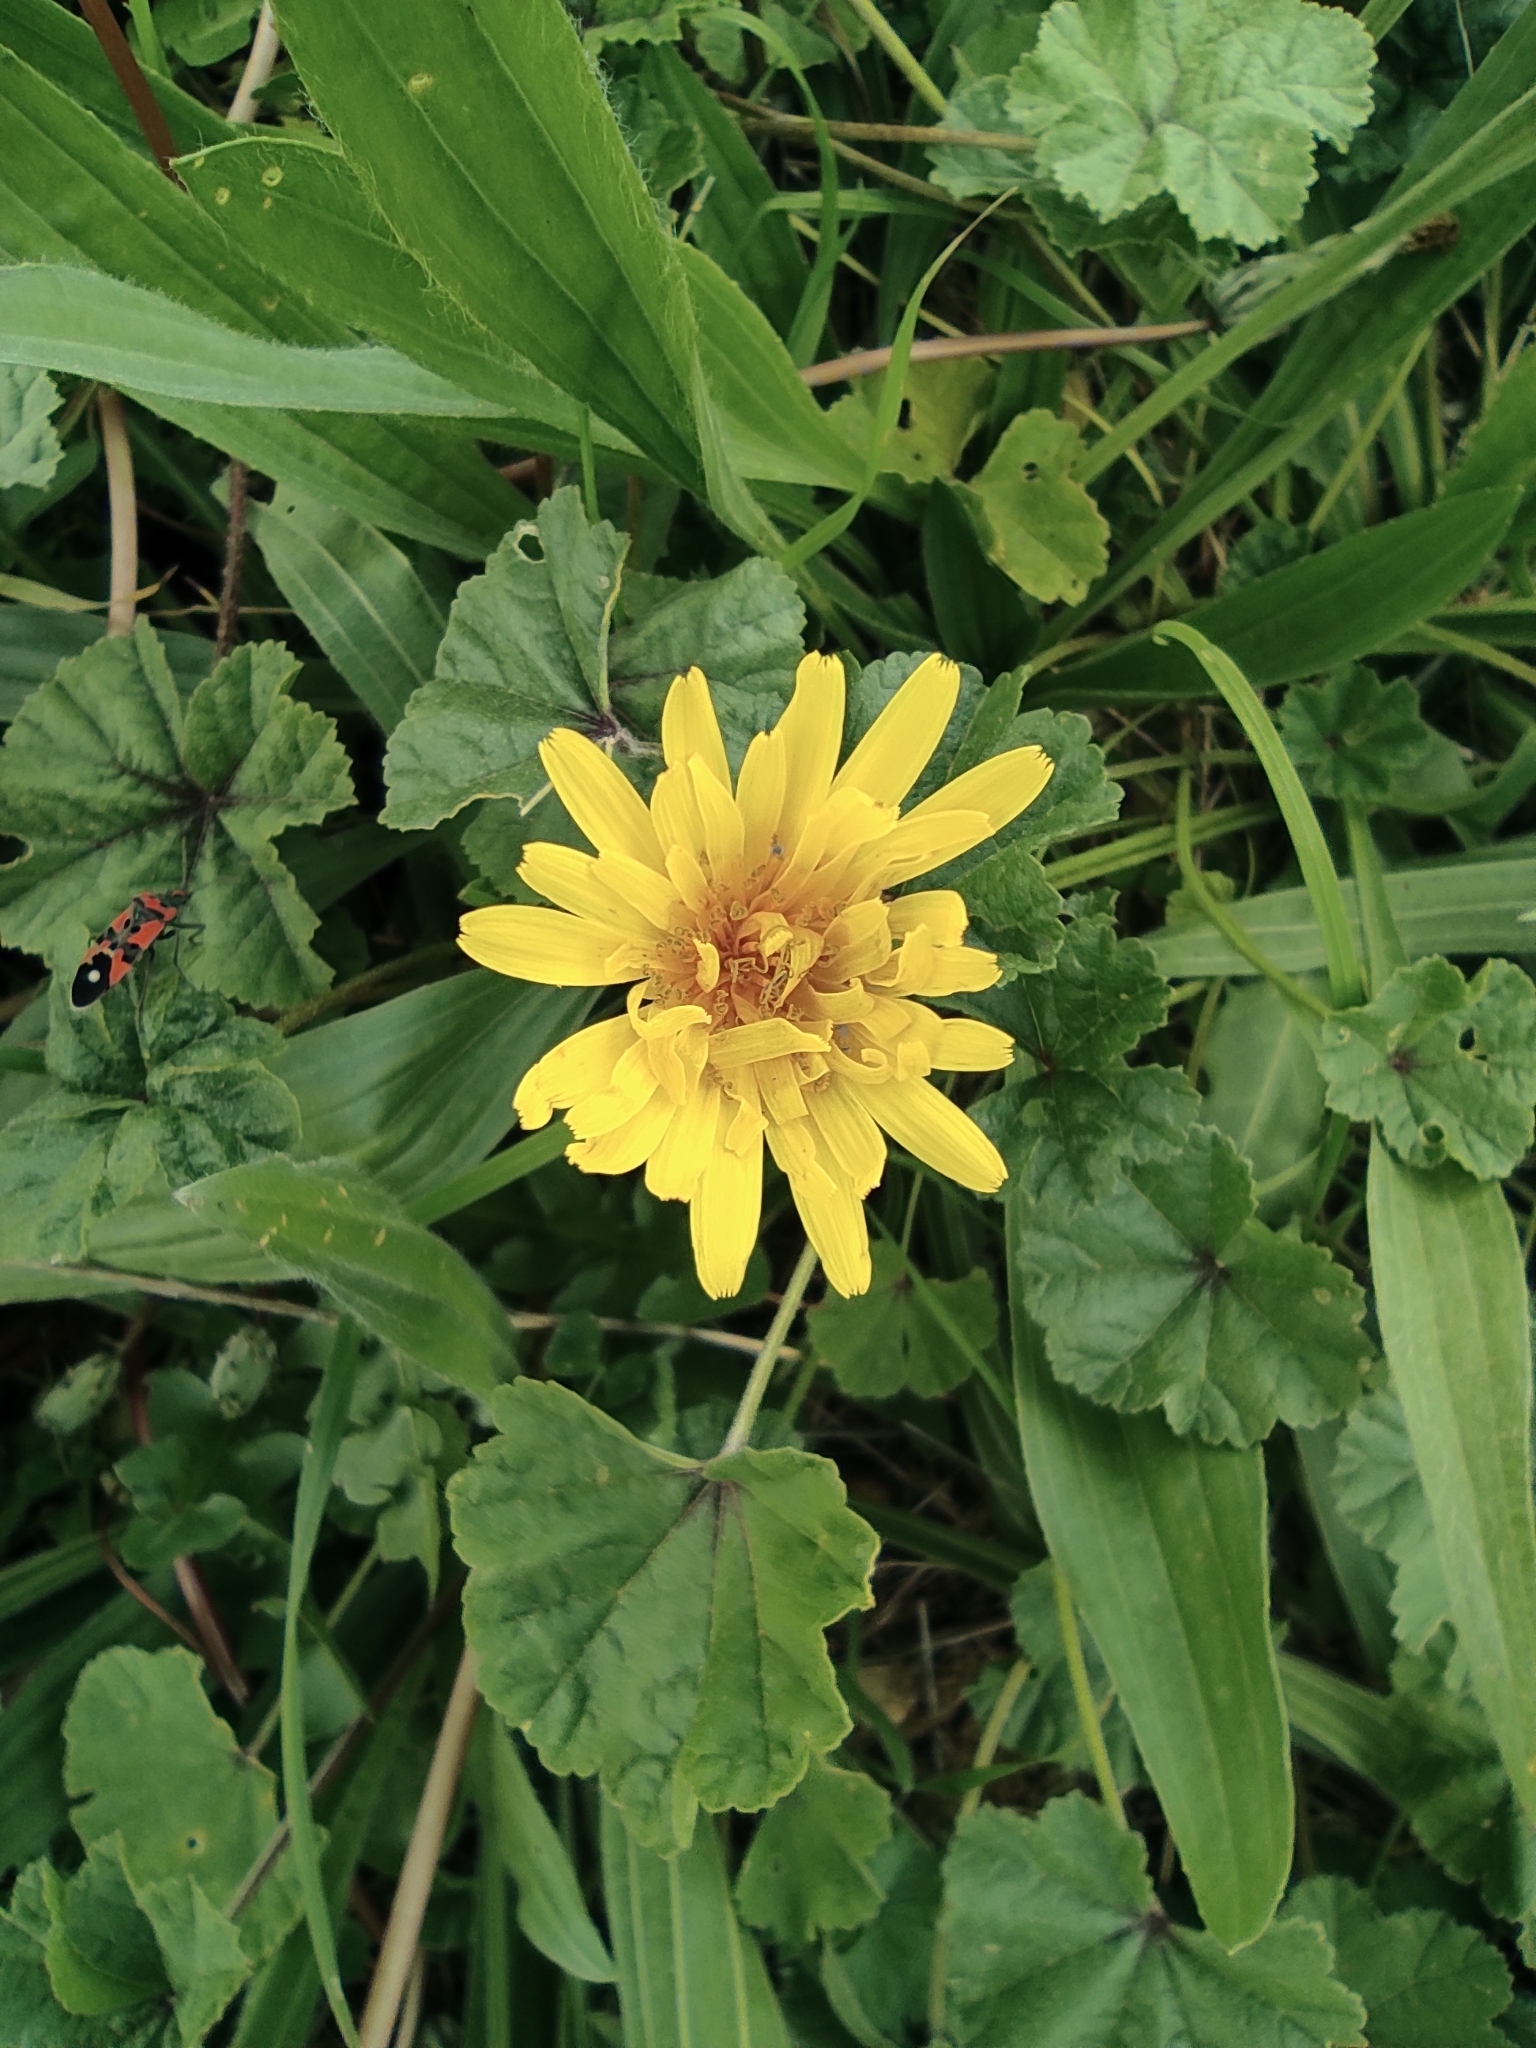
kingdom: Plantae
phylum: Tracheophyta
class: Magnoliopsida
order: Asterales
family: Asteraceae
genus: Taraxacum
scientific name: Taraxacum officinale
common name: Common dandelion
